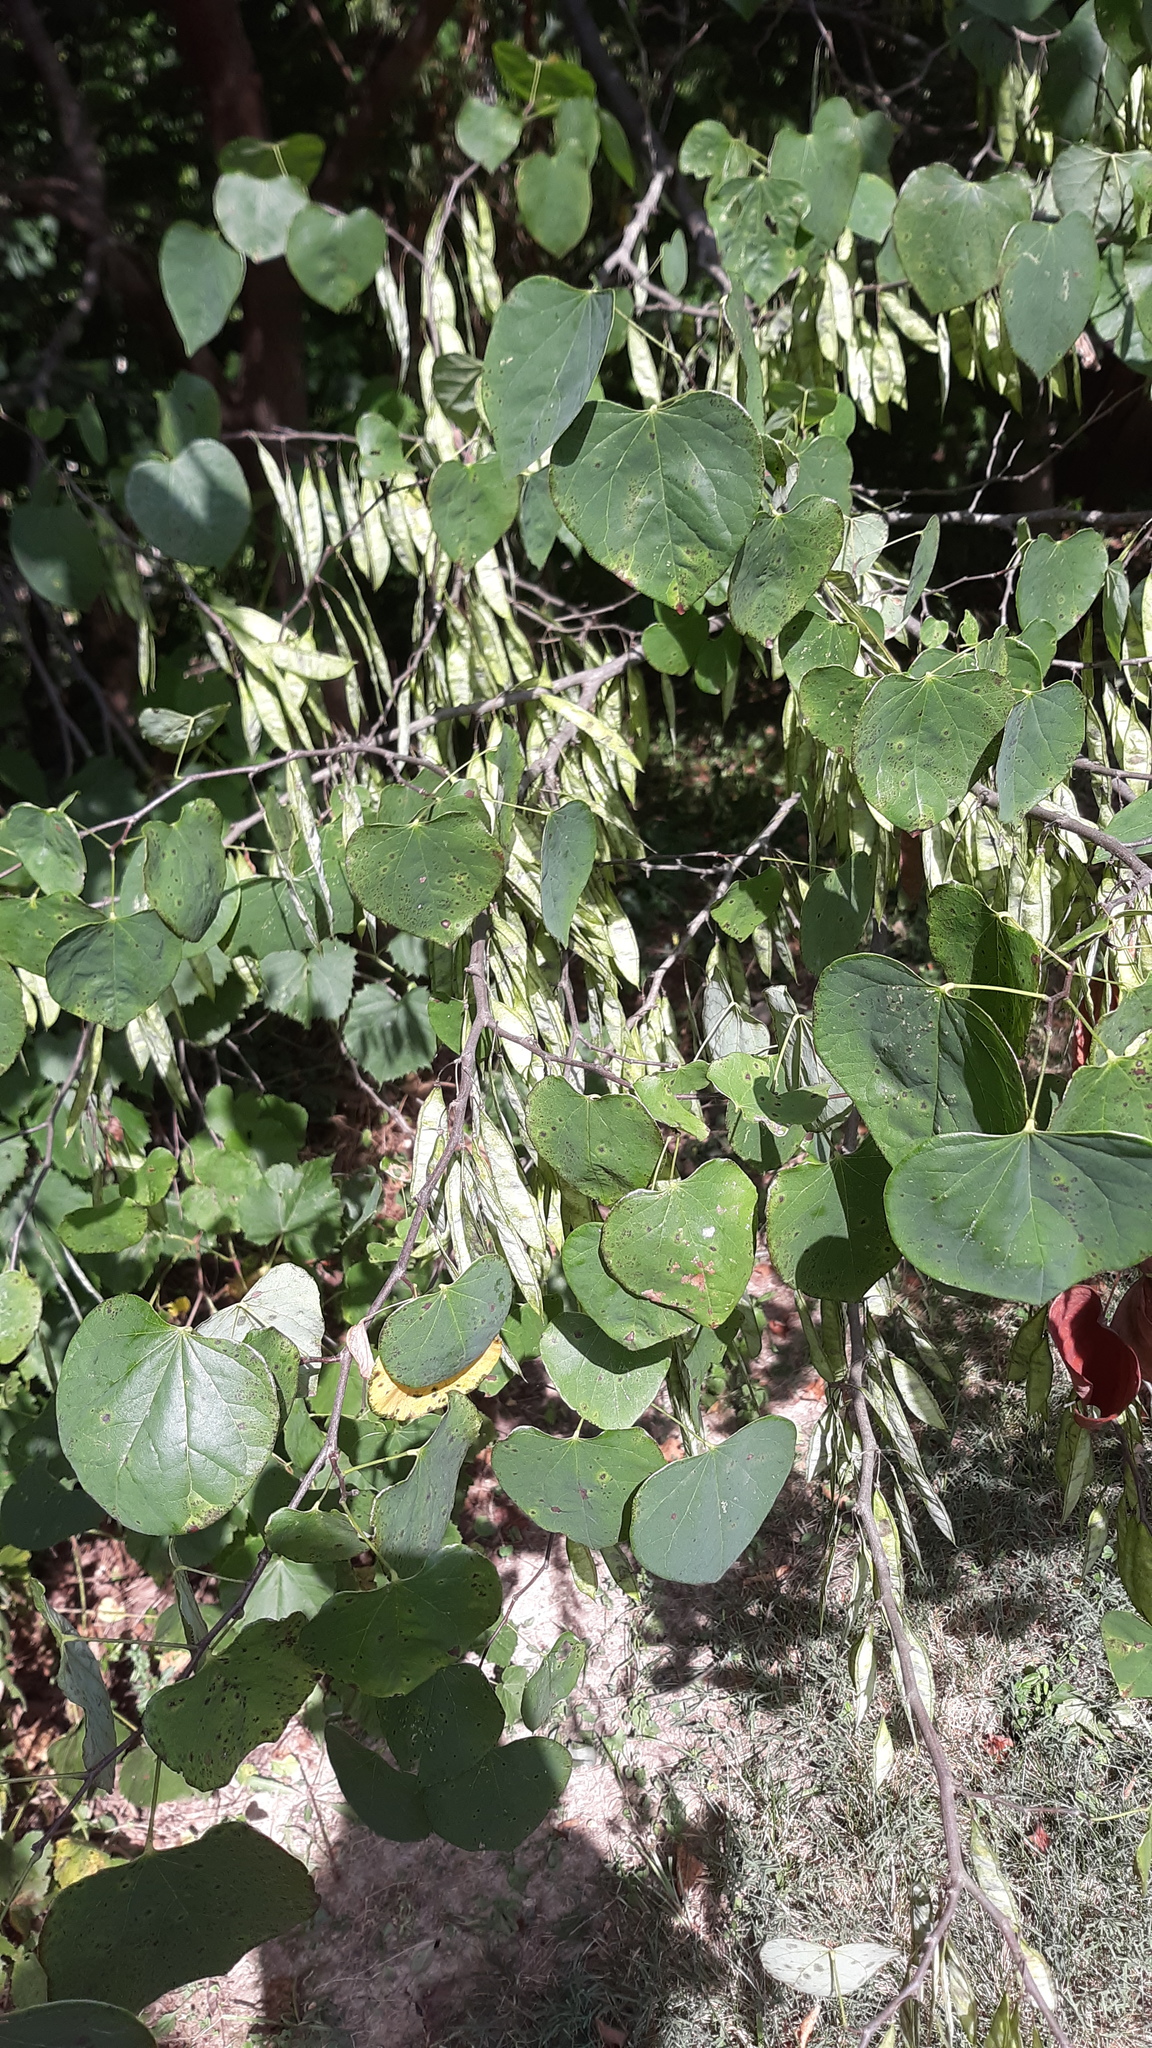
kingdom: Plantae
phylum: Tracheophyta
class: Magnoliopsida
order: Fabales
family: Fabaceae
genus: Cercis
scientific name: Cercis canadensis
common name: Eastern redbud
